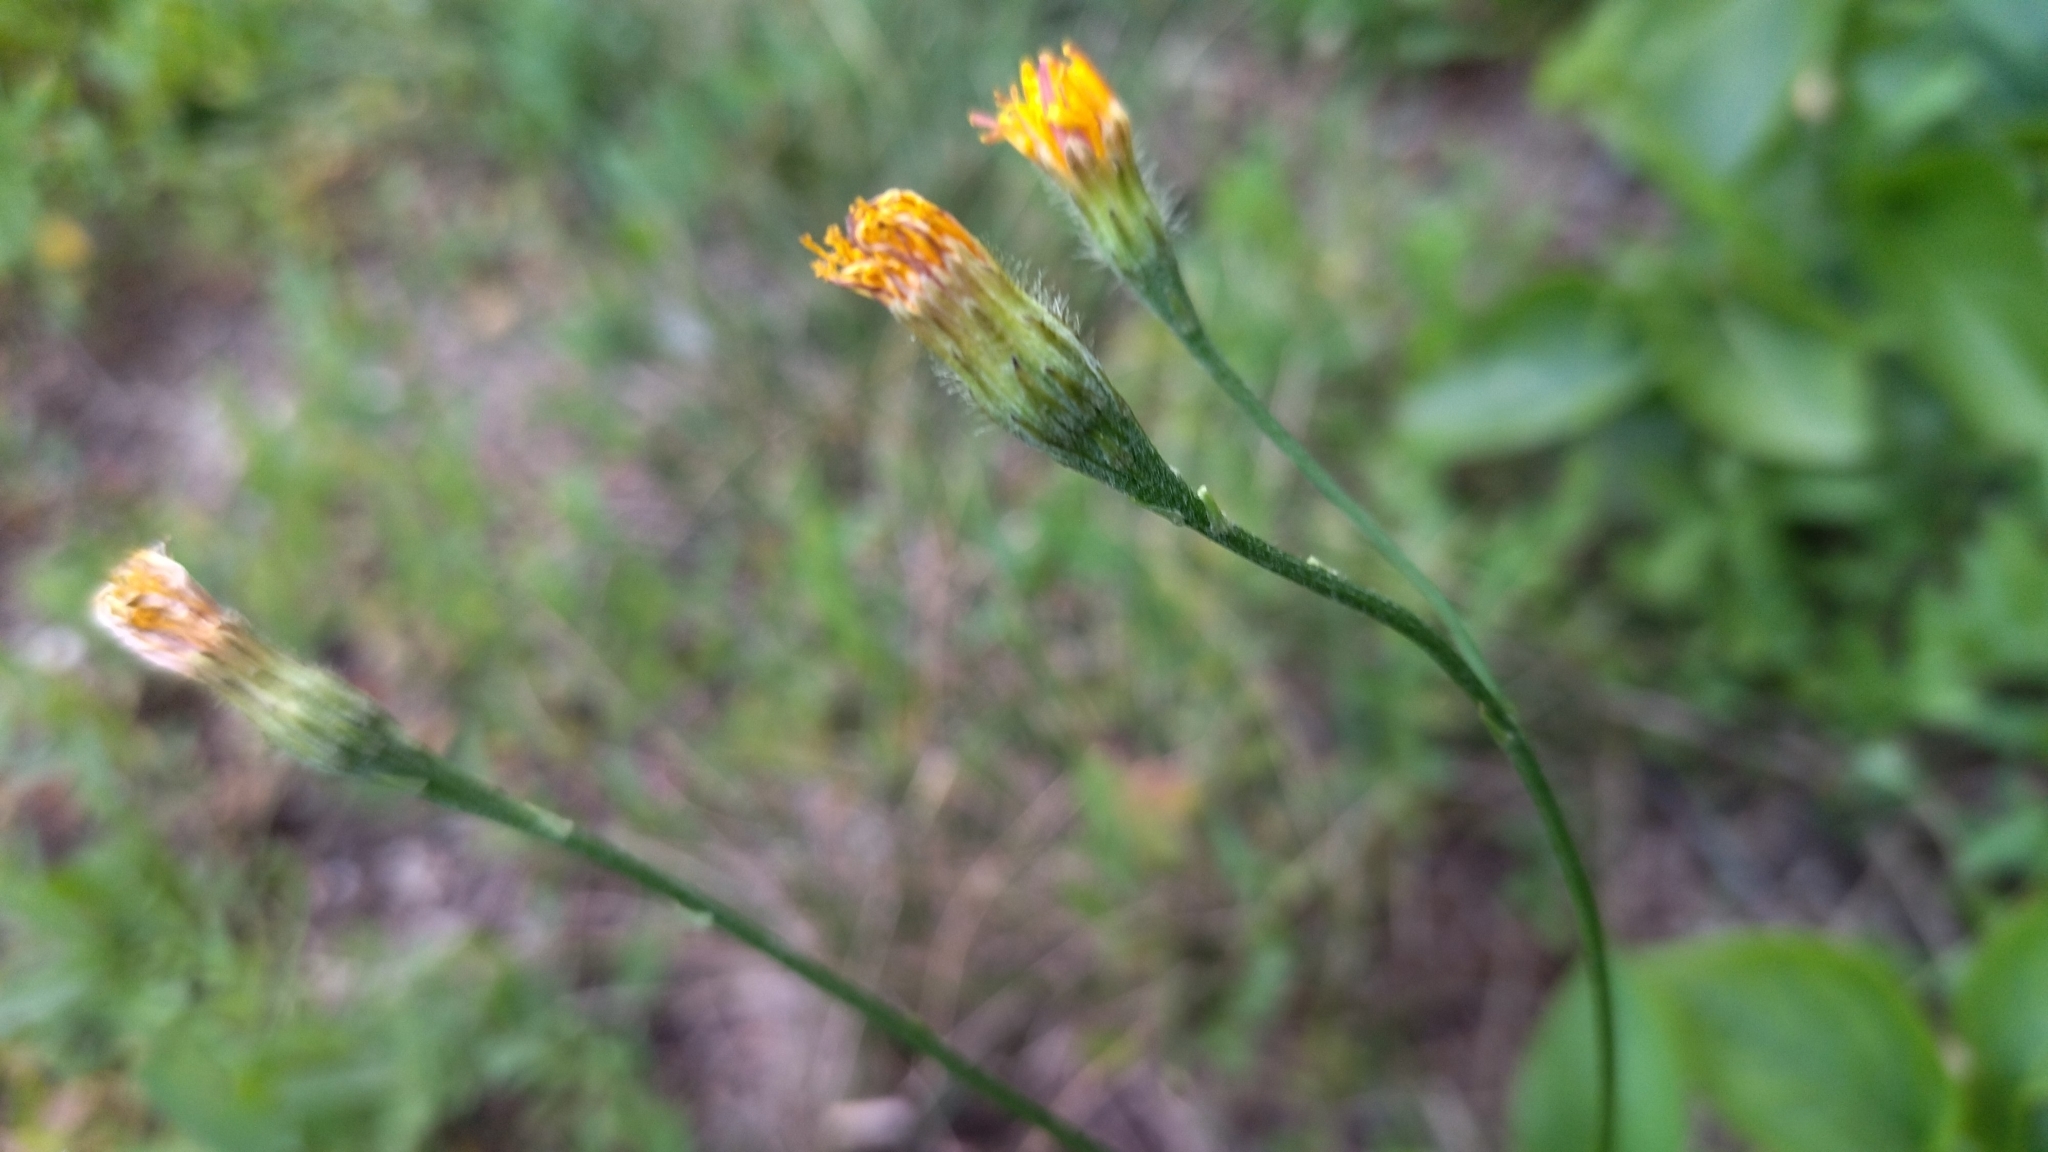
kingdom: Plantae
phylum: Tracheophyta
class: Magnoliopsida
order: Asterales
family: Asteraceae
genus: Scorzoneroides
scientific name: Scorzoneroides autumnalis
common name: Autumn hawkbit
